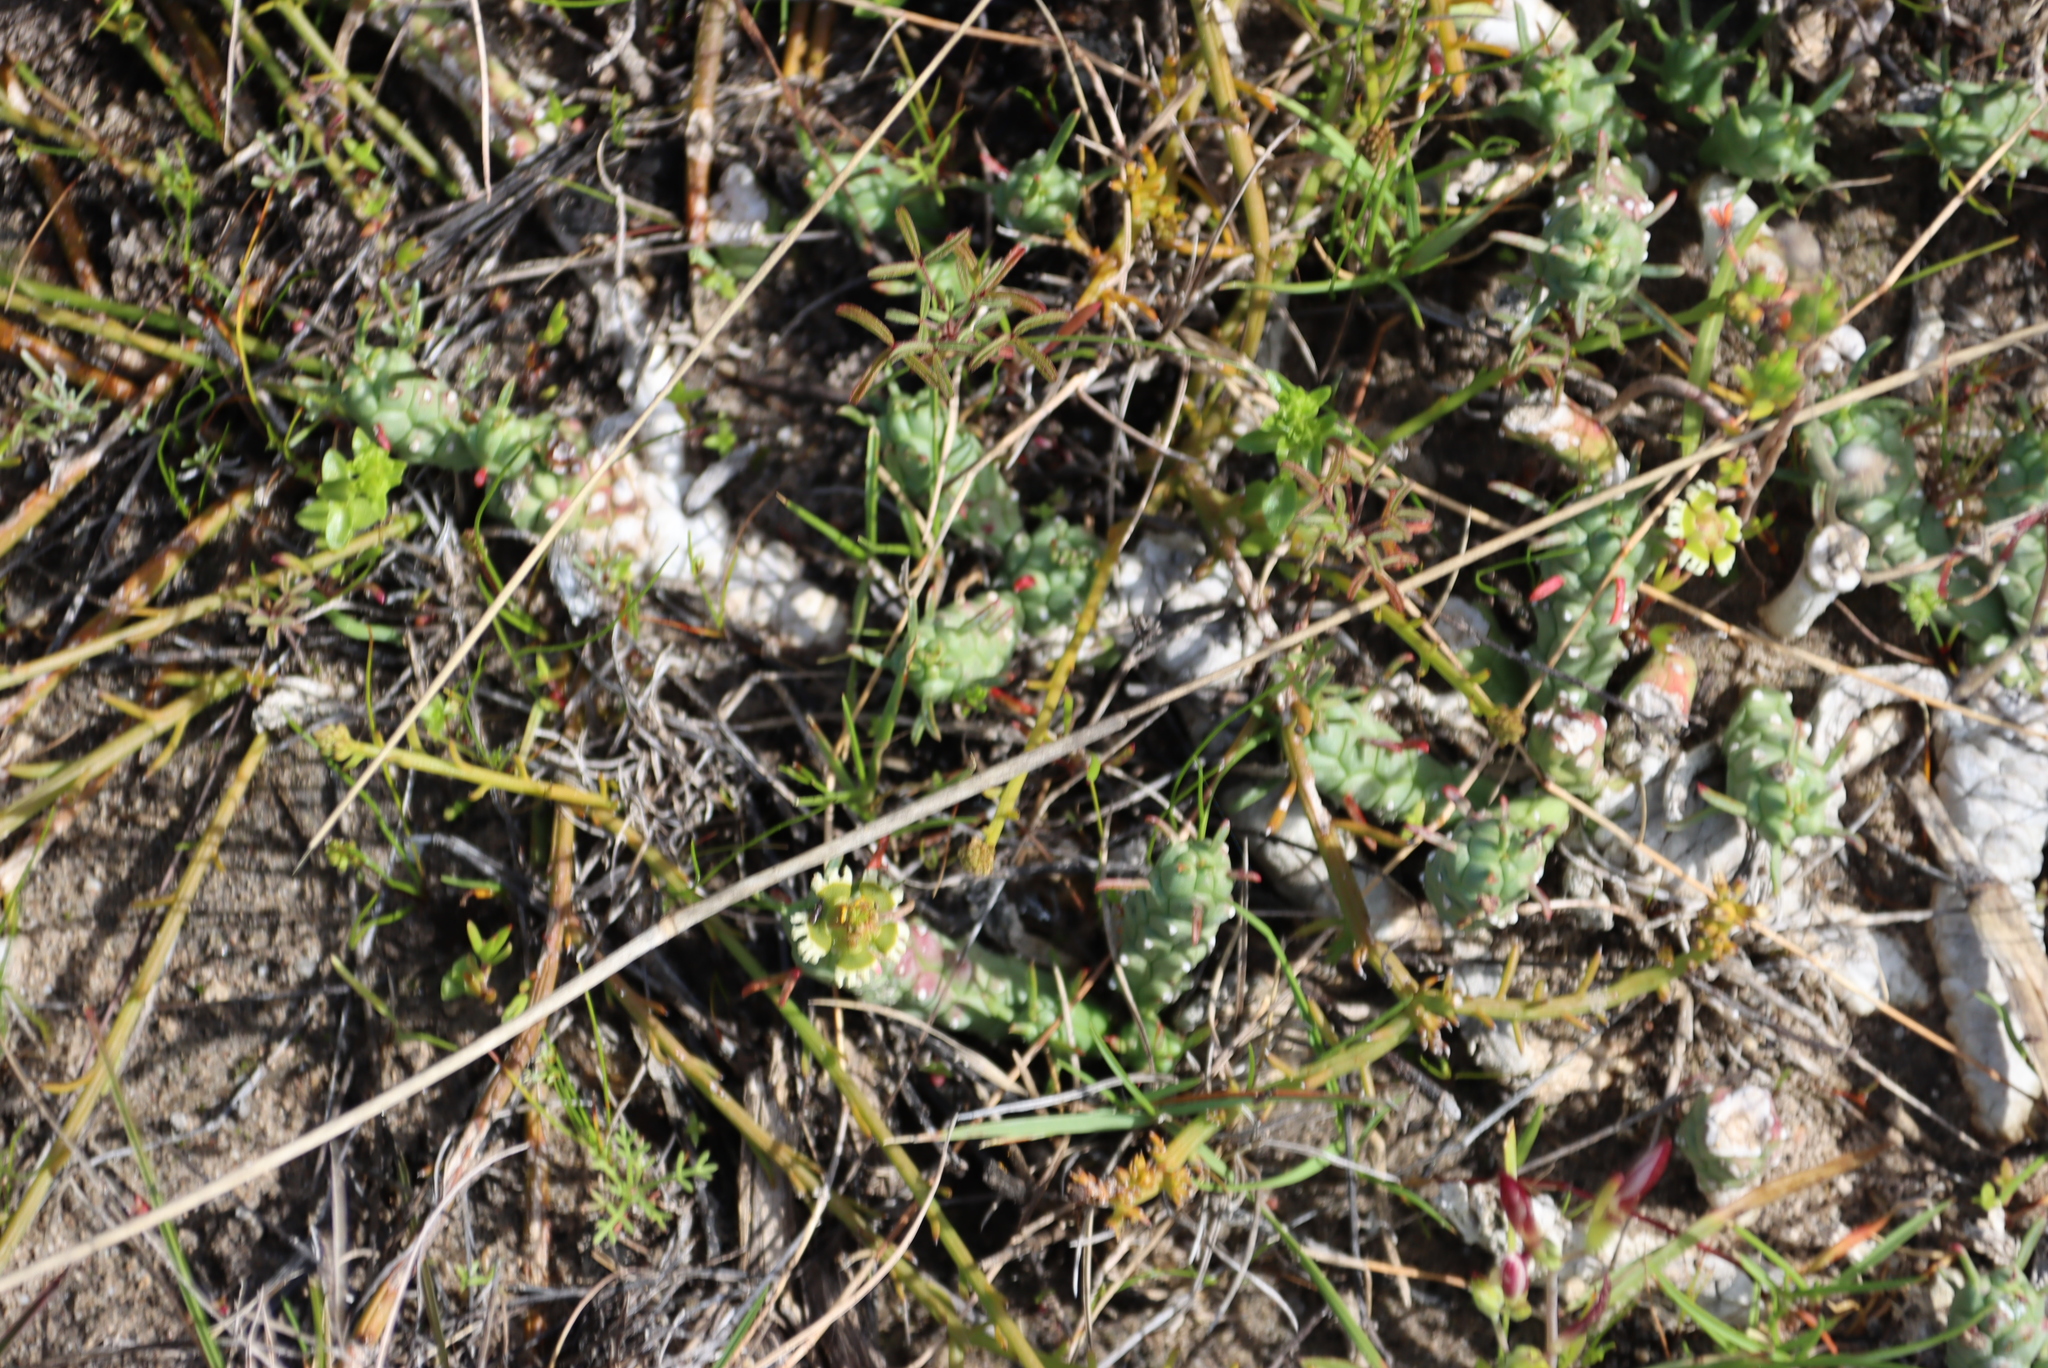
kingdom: Plantae
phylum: Tracheophyta
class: Magnoliopsida
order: Malpighiales
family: Euphorbiaceae
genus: Euphorbia
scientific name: Euphorbia caput-medusae
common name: Medusa's-head
